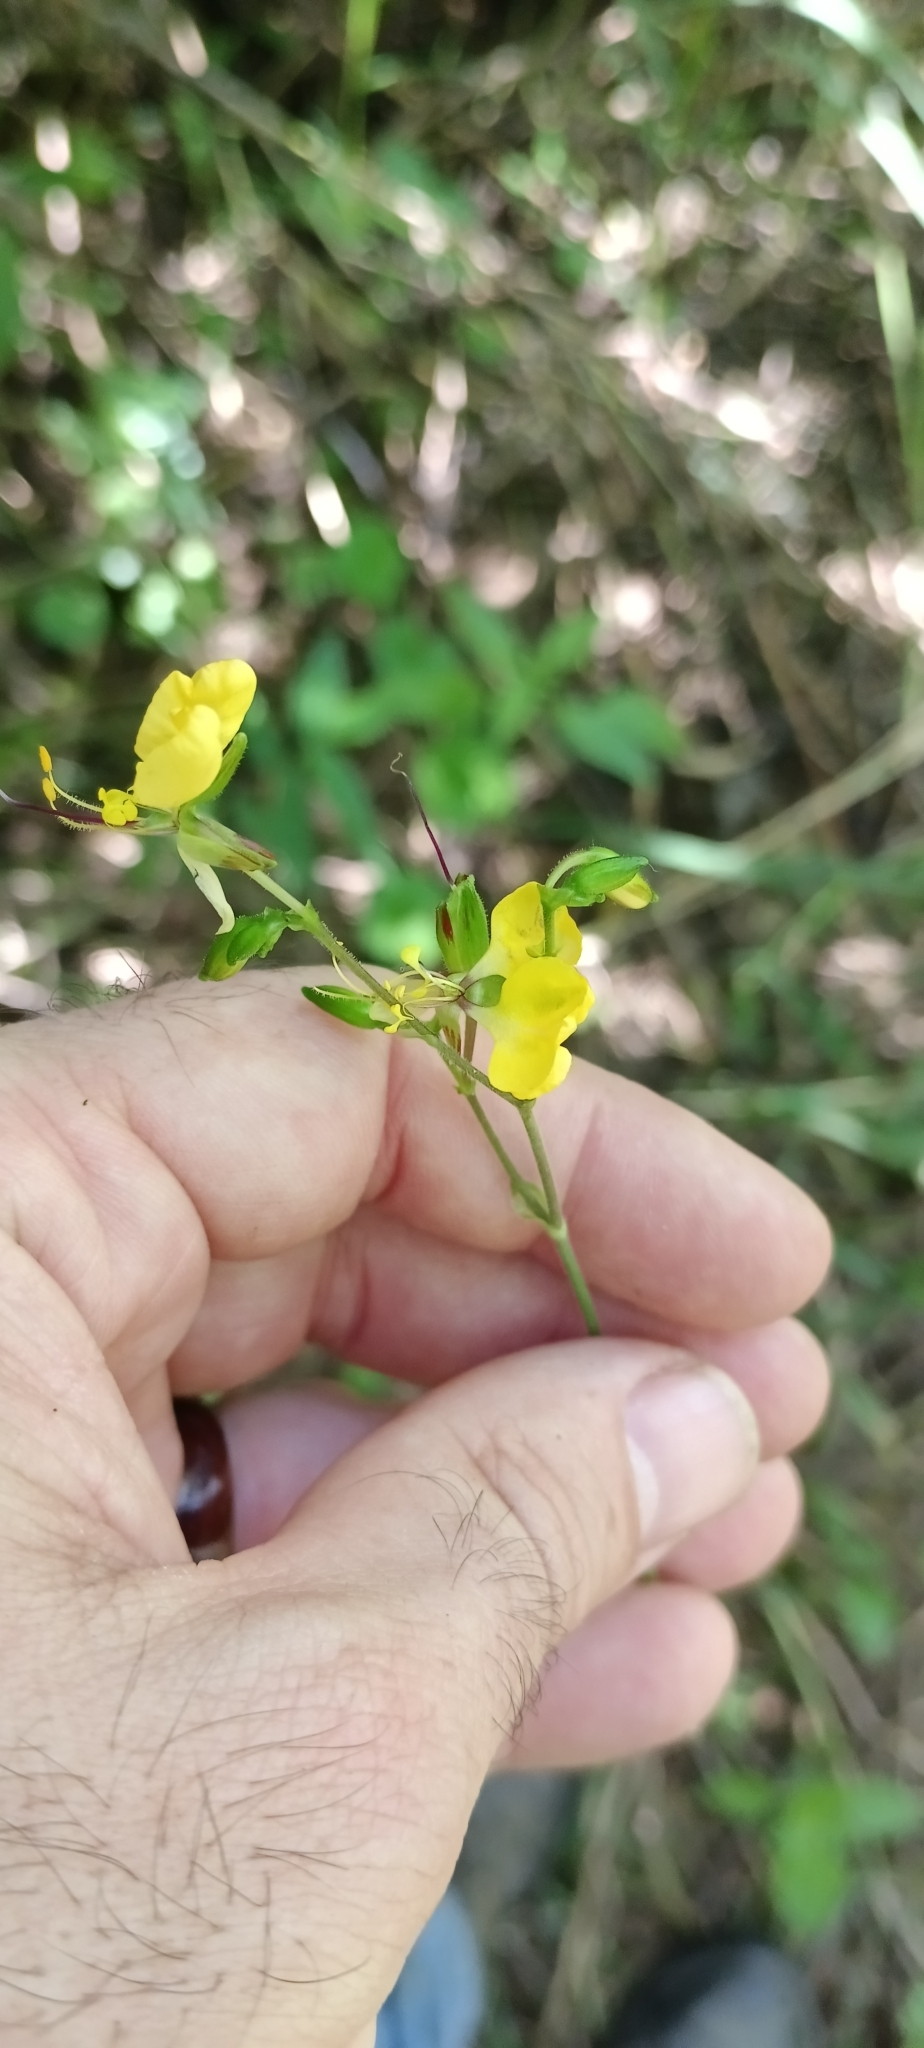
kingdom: Plantae
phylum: Tracheophyta
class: Liliopsida
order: Commelinales
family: Commelinaceae
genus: Aneilema
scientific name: Aneilema aequinoctiale
